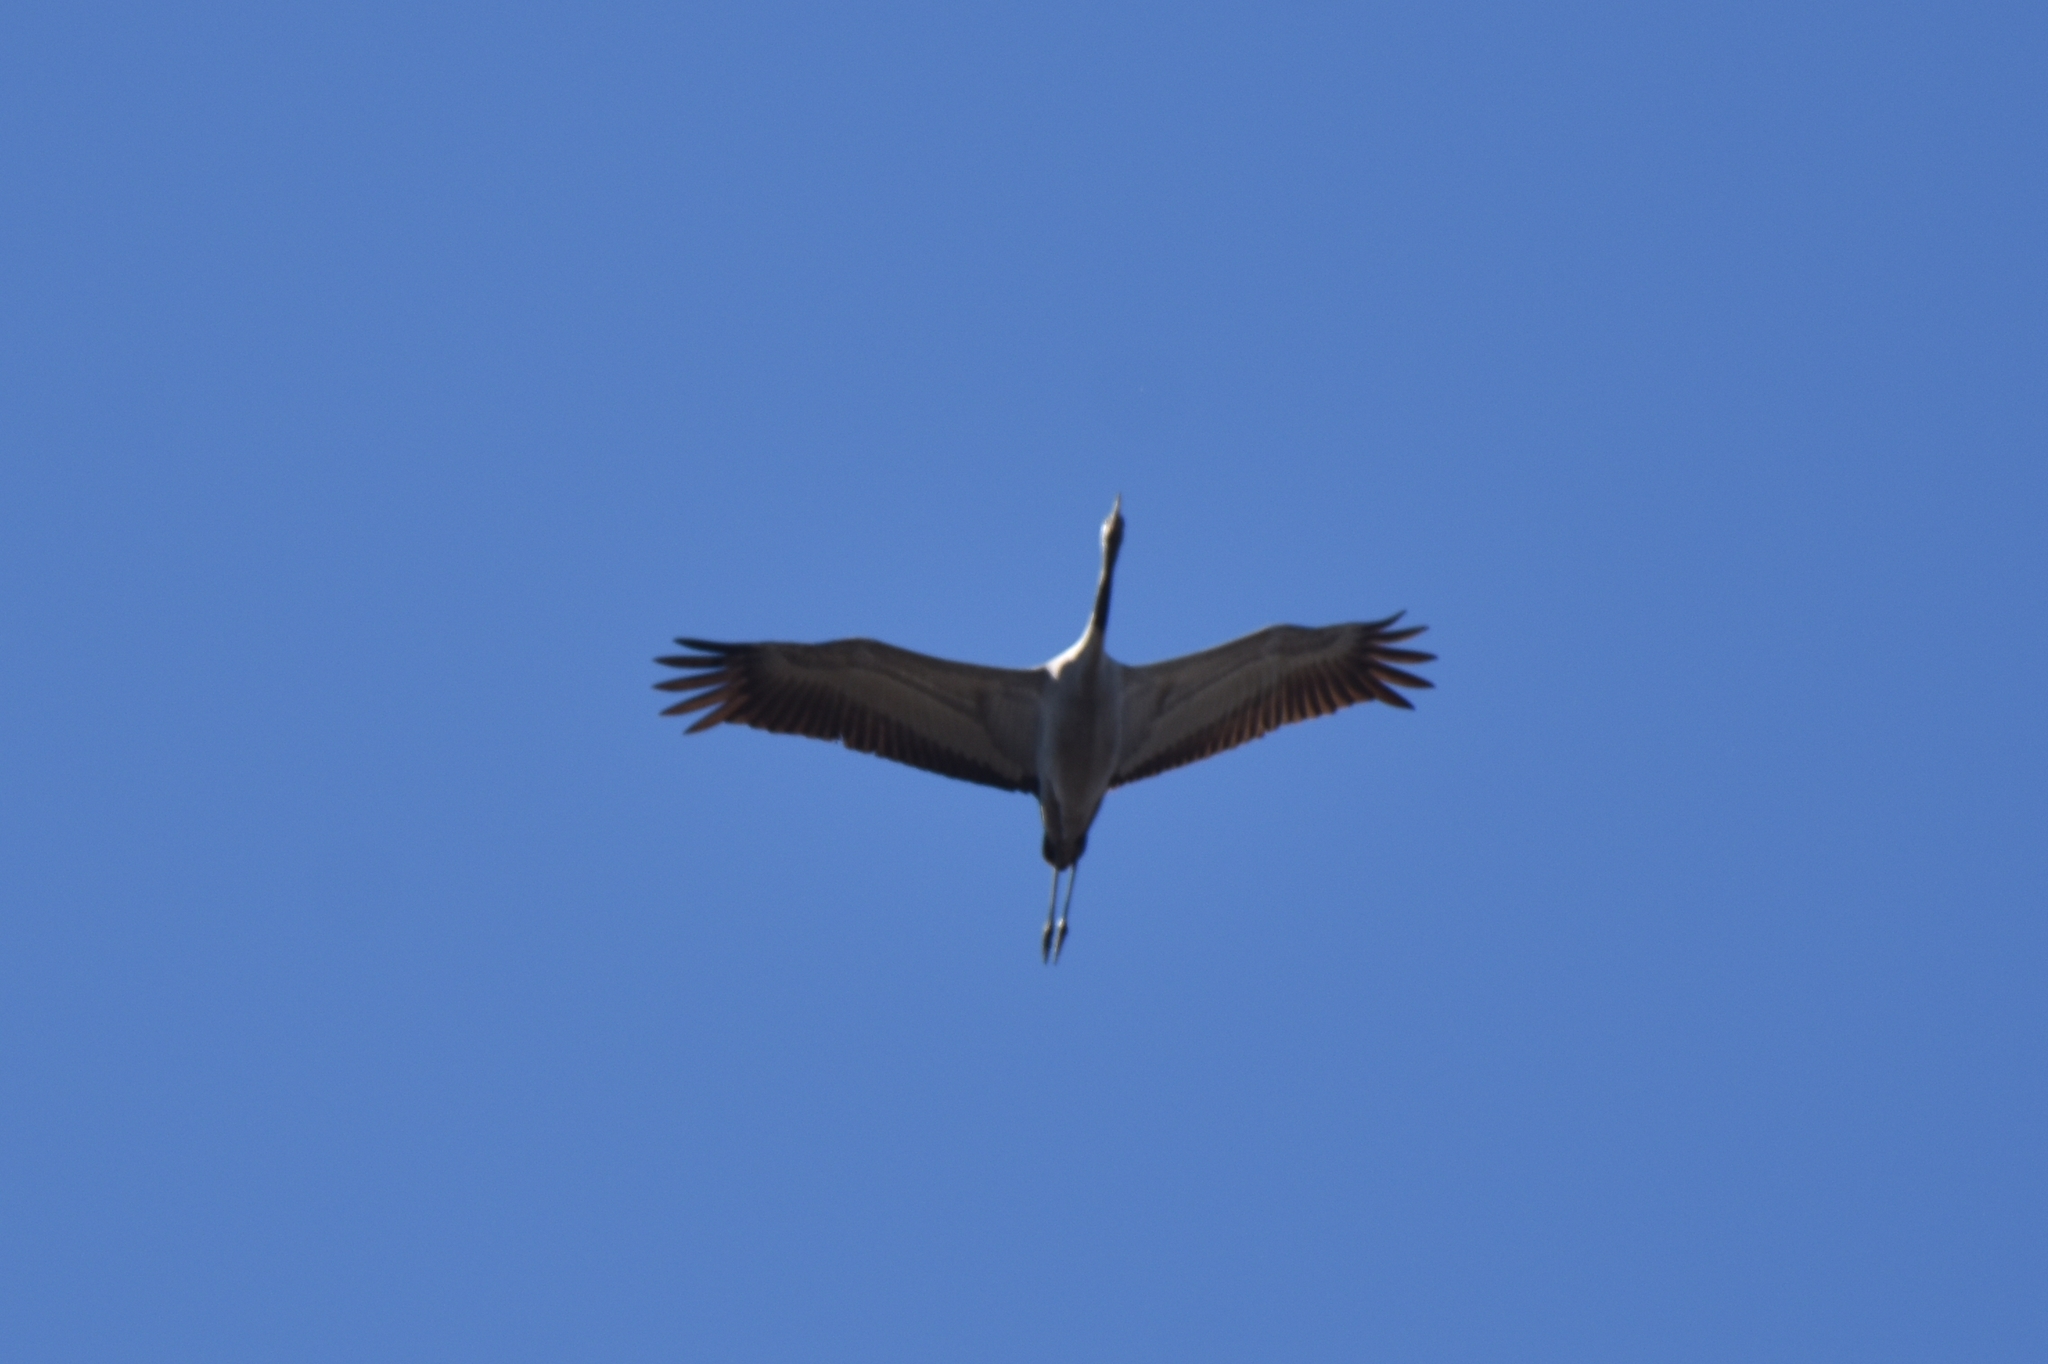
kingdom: Animalia
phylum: Chordata
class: Aves
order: Gruiformes
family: Gruidae
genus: Grus
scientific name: Grus grus
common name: Common crane
